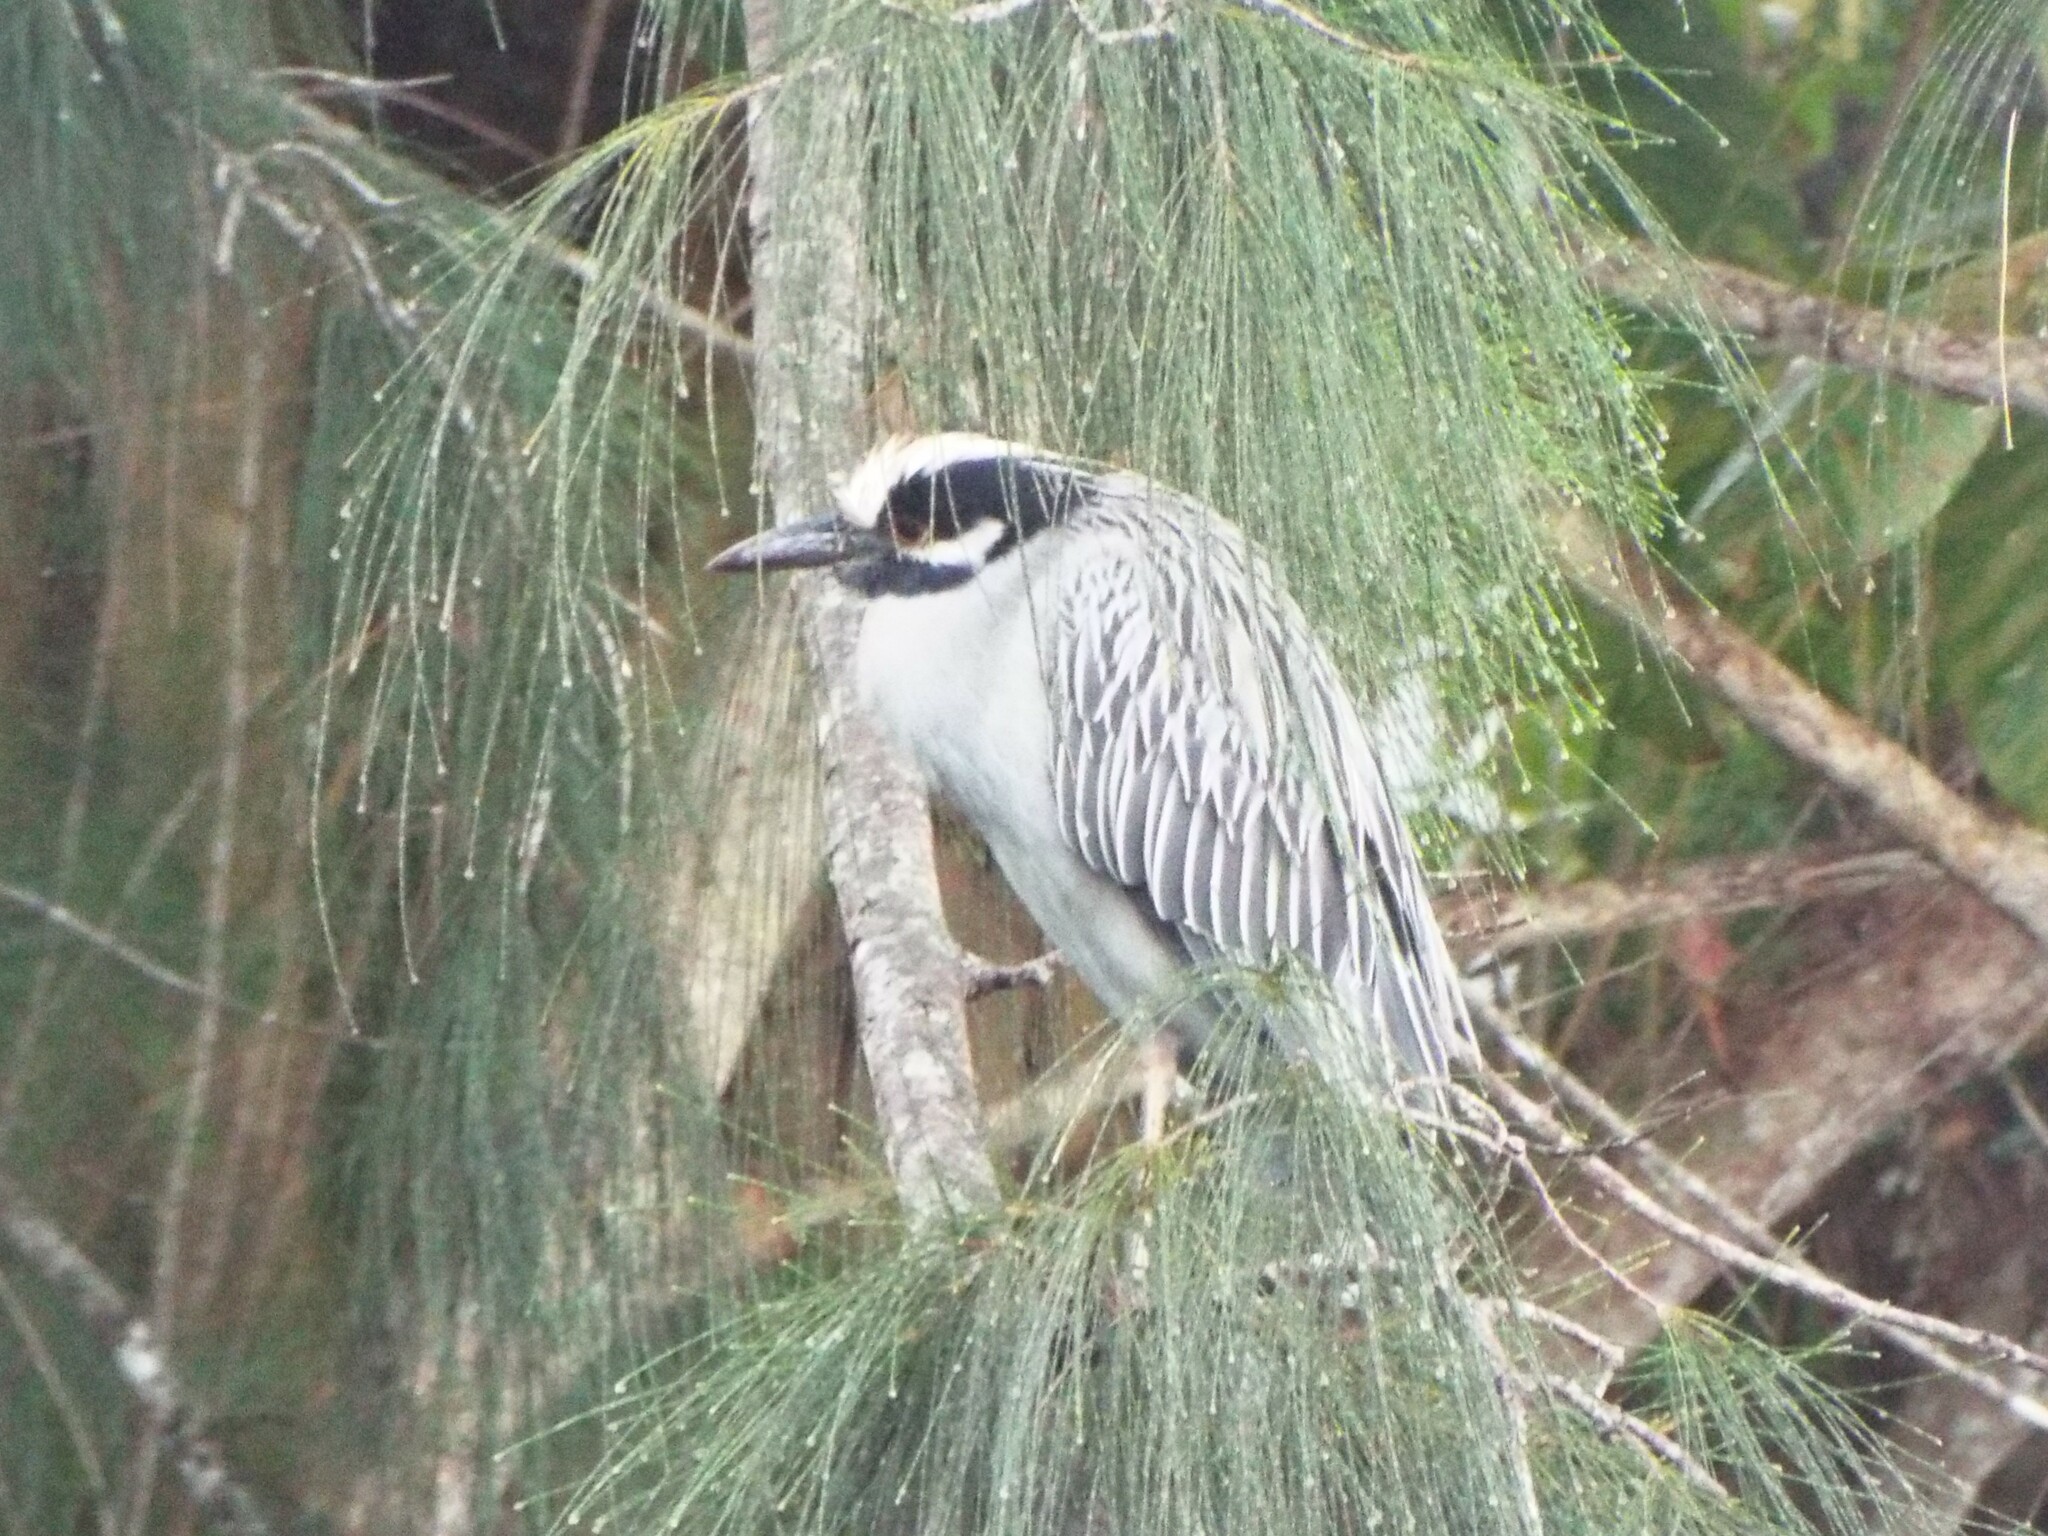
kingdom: Animalia
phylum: Chordata
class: Aves
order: Pelecaniformes
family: Ardeidae
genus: Nyctanassa
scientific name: Nyctanassa violacea
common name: Yellow-crowned night heron
